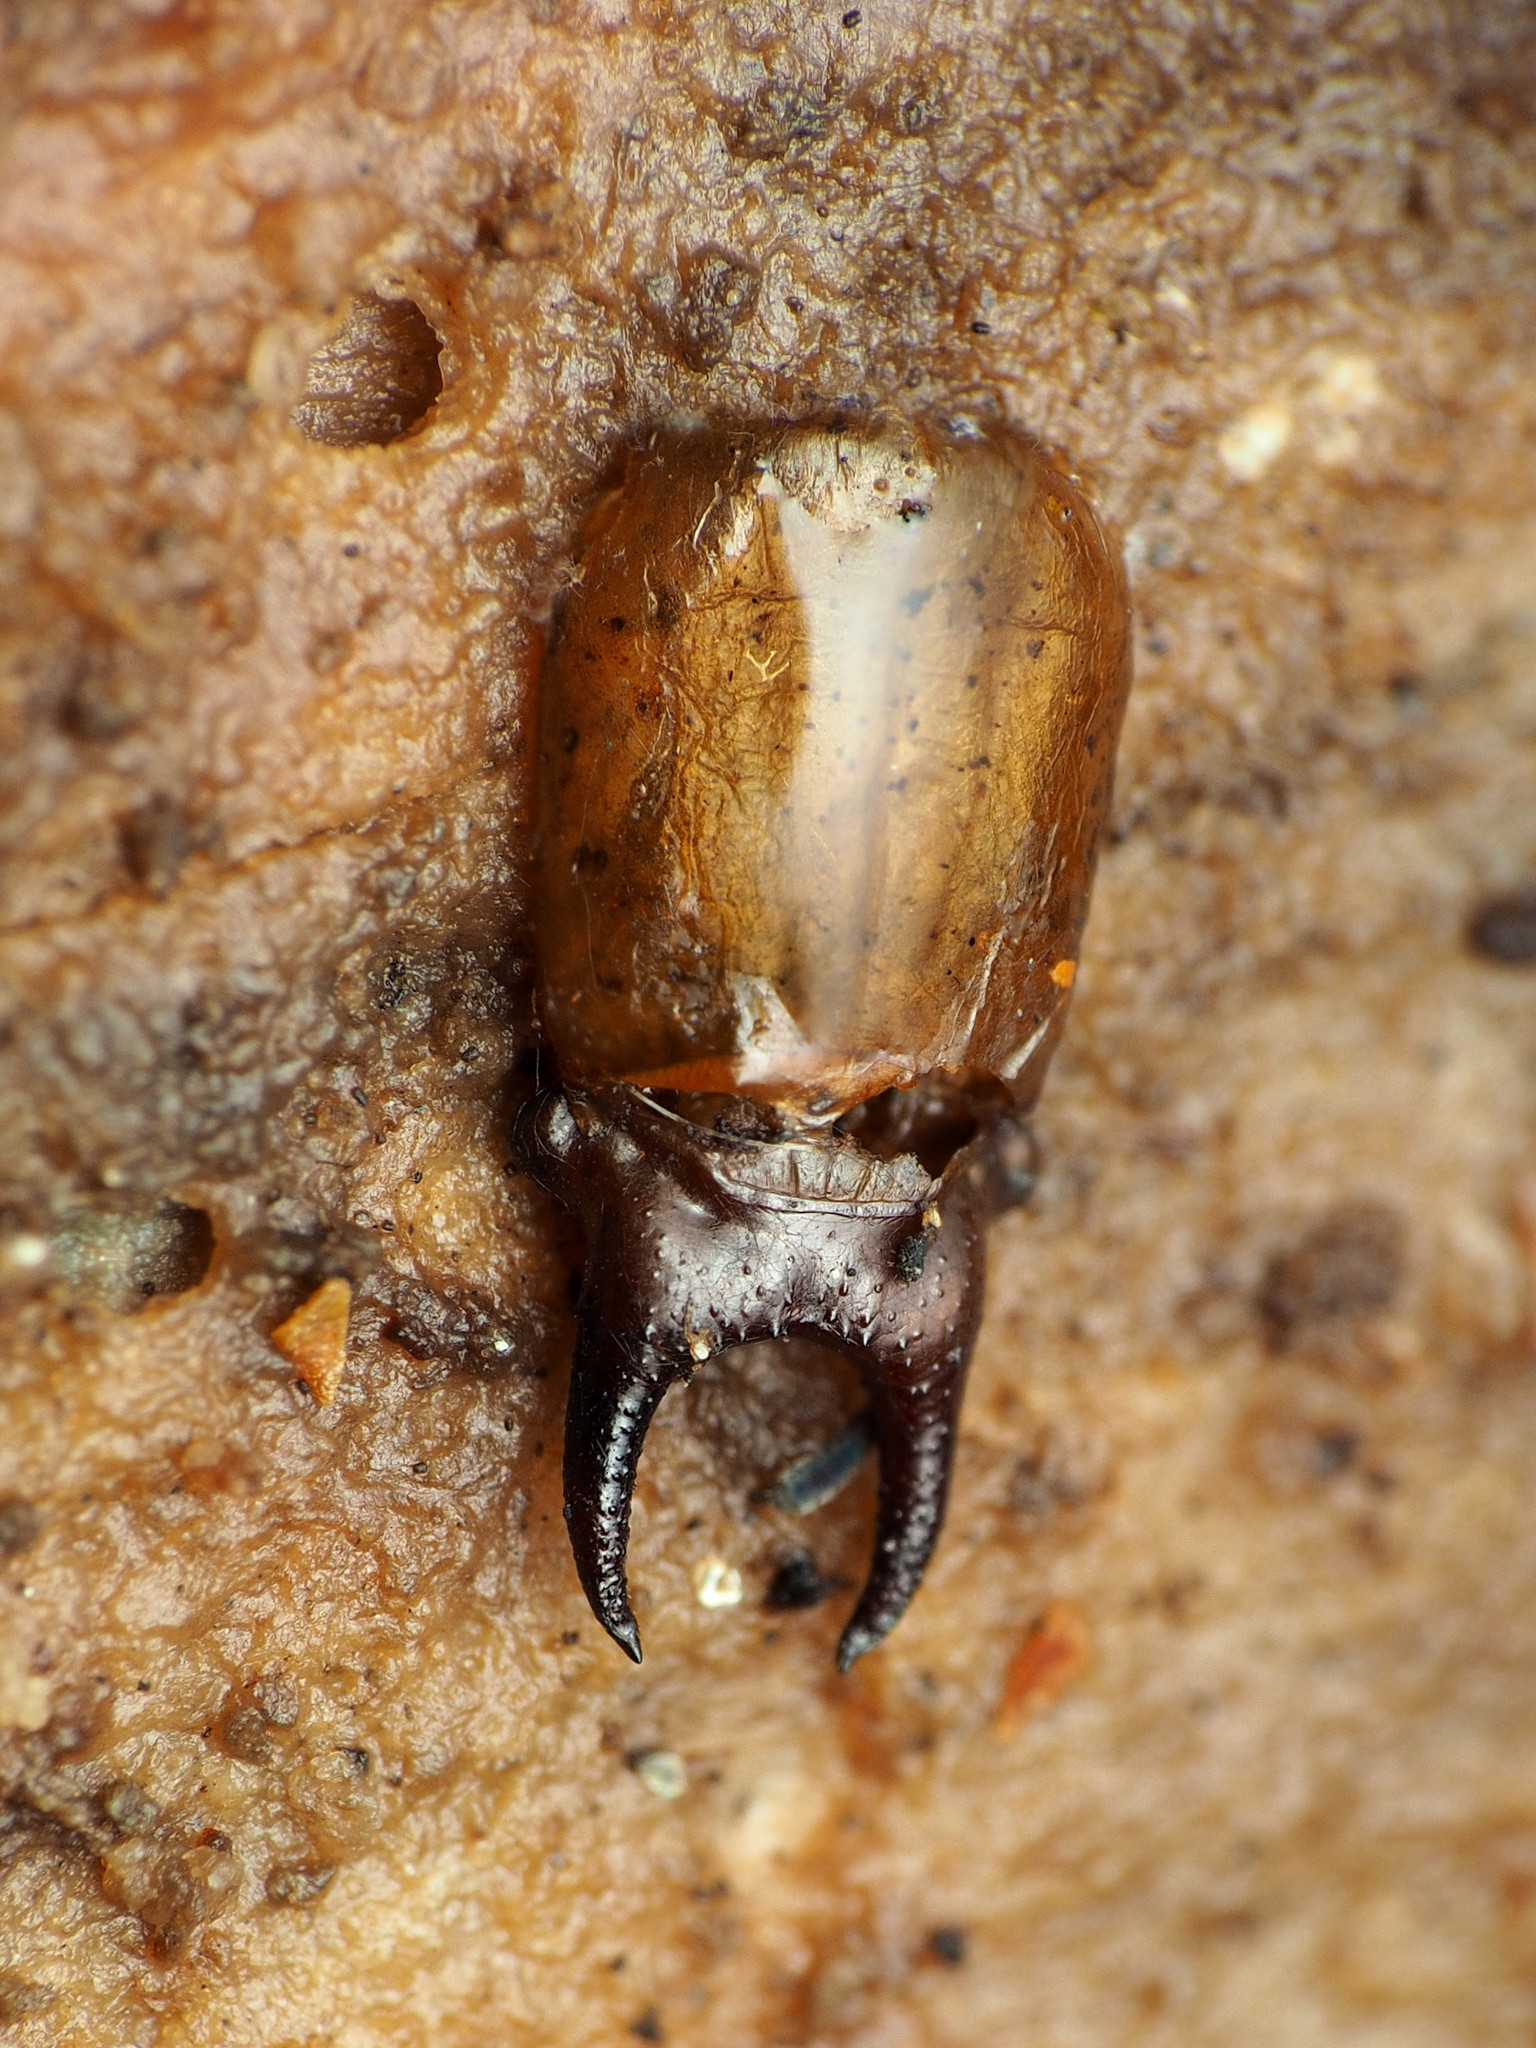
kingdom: Animalia
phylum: Arthropoda
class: Insecta
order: Coleoptera
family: Pyrochroidae
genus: Dendroides
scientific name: Dendroides canadensis
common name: Canada fire-colored beetle
